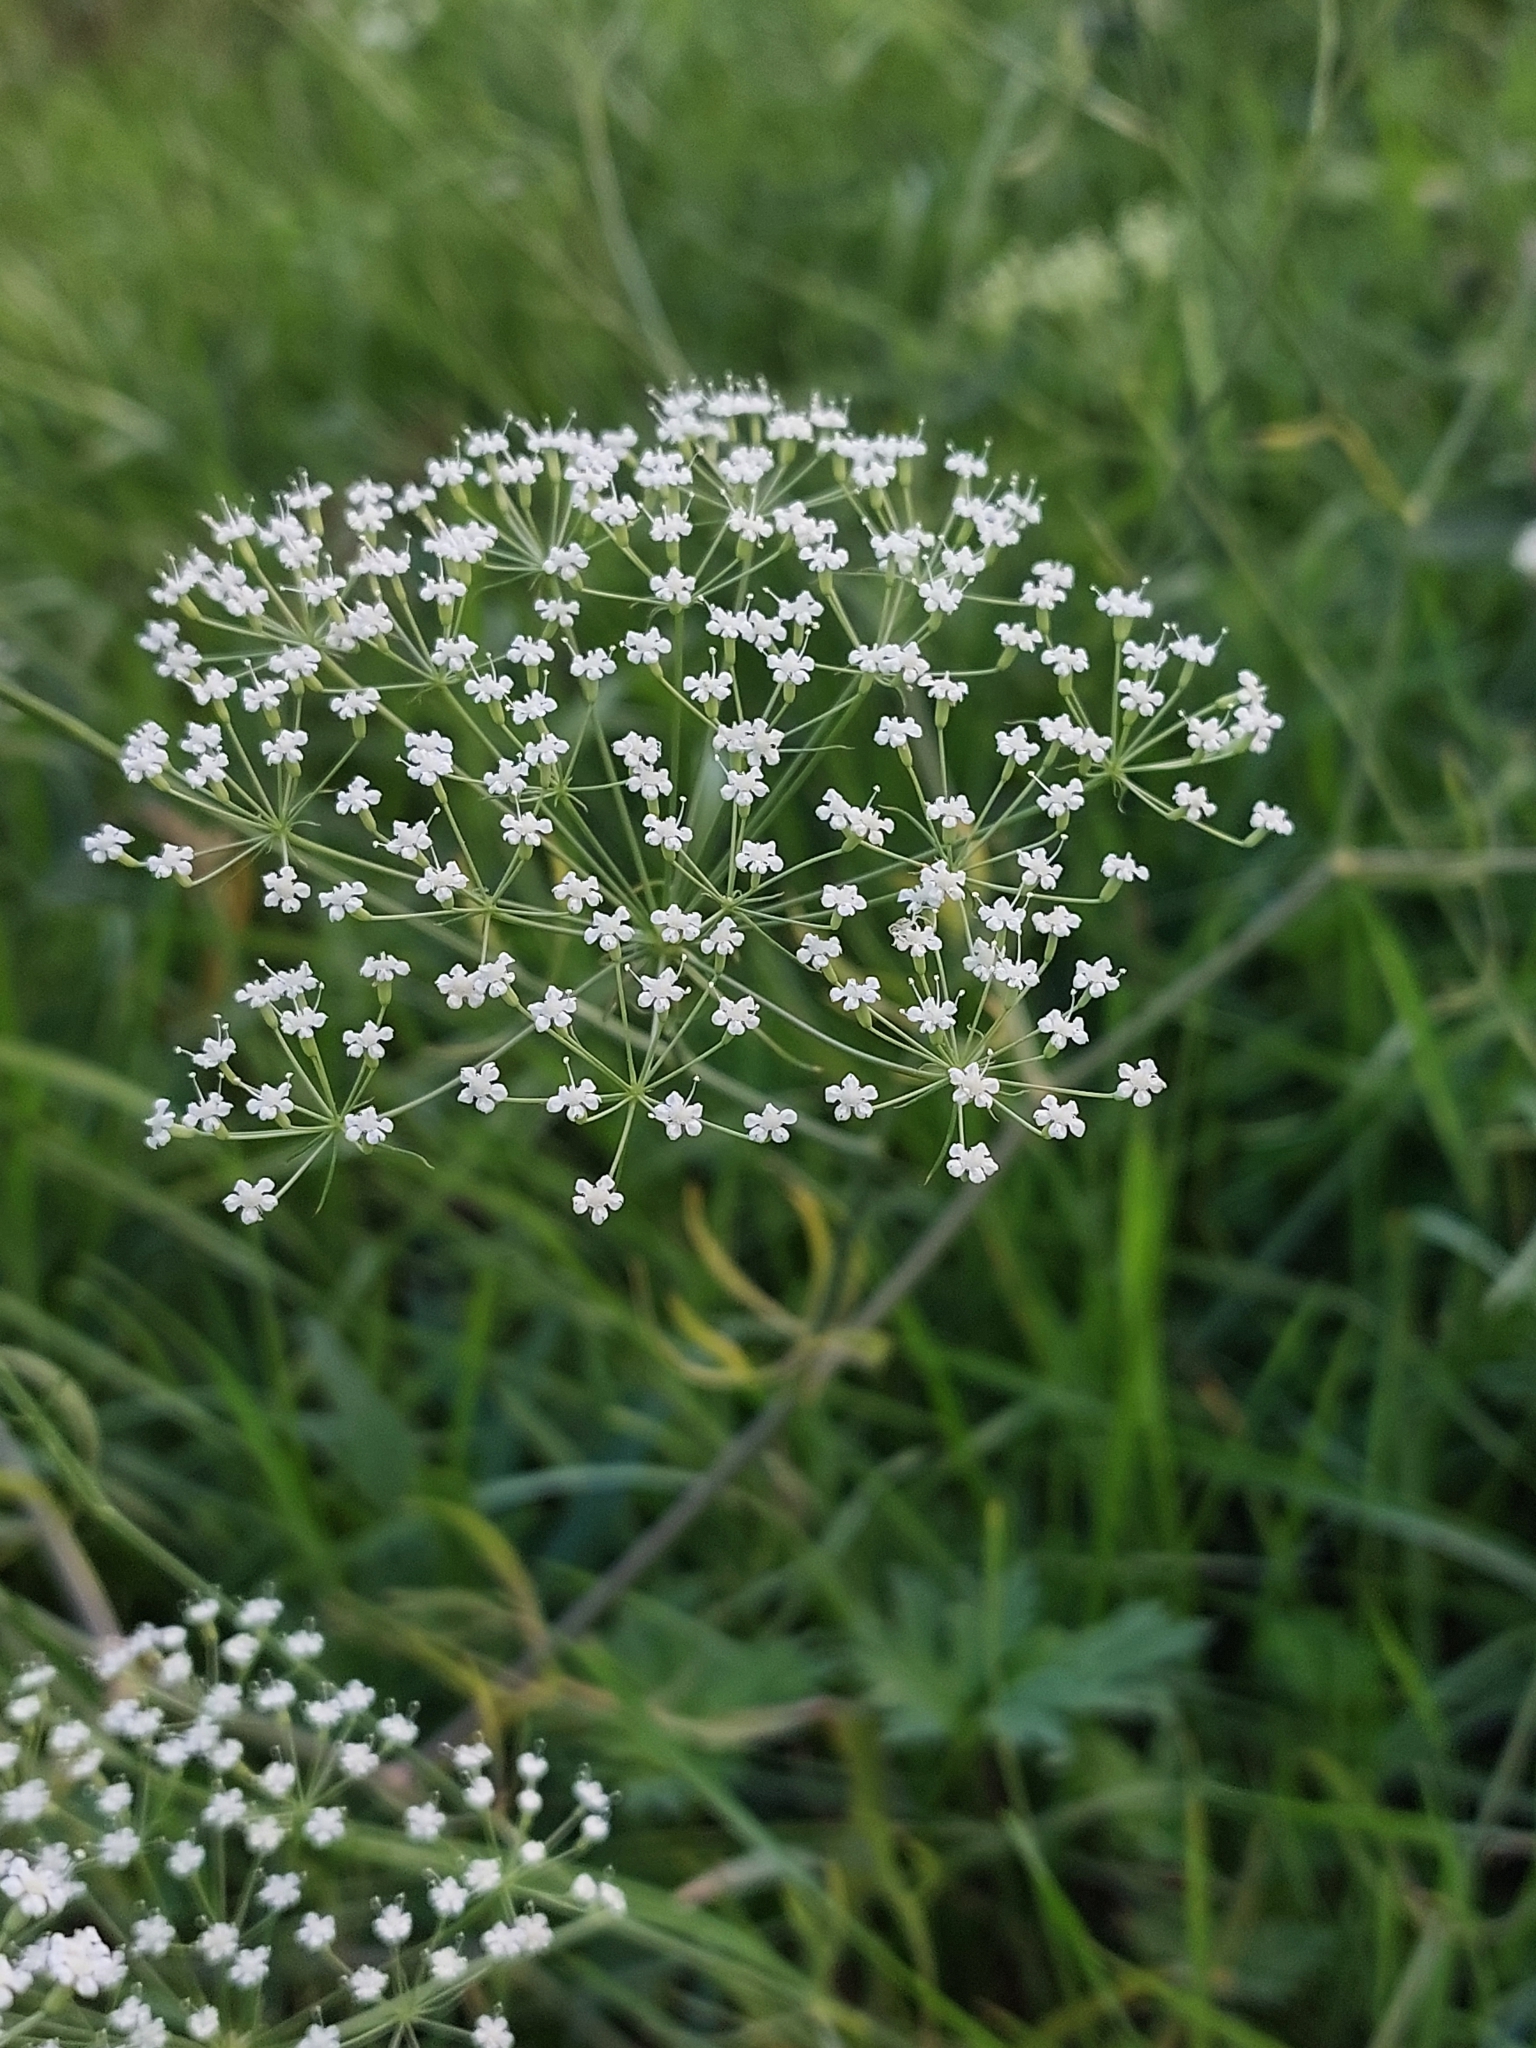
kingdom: Plantae
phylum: Tracheophyta
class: Magnoliopsida
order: Apiales
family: Apiaceae
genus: Falcaria
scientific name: Falcaria vulgaris
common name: Longleaf
